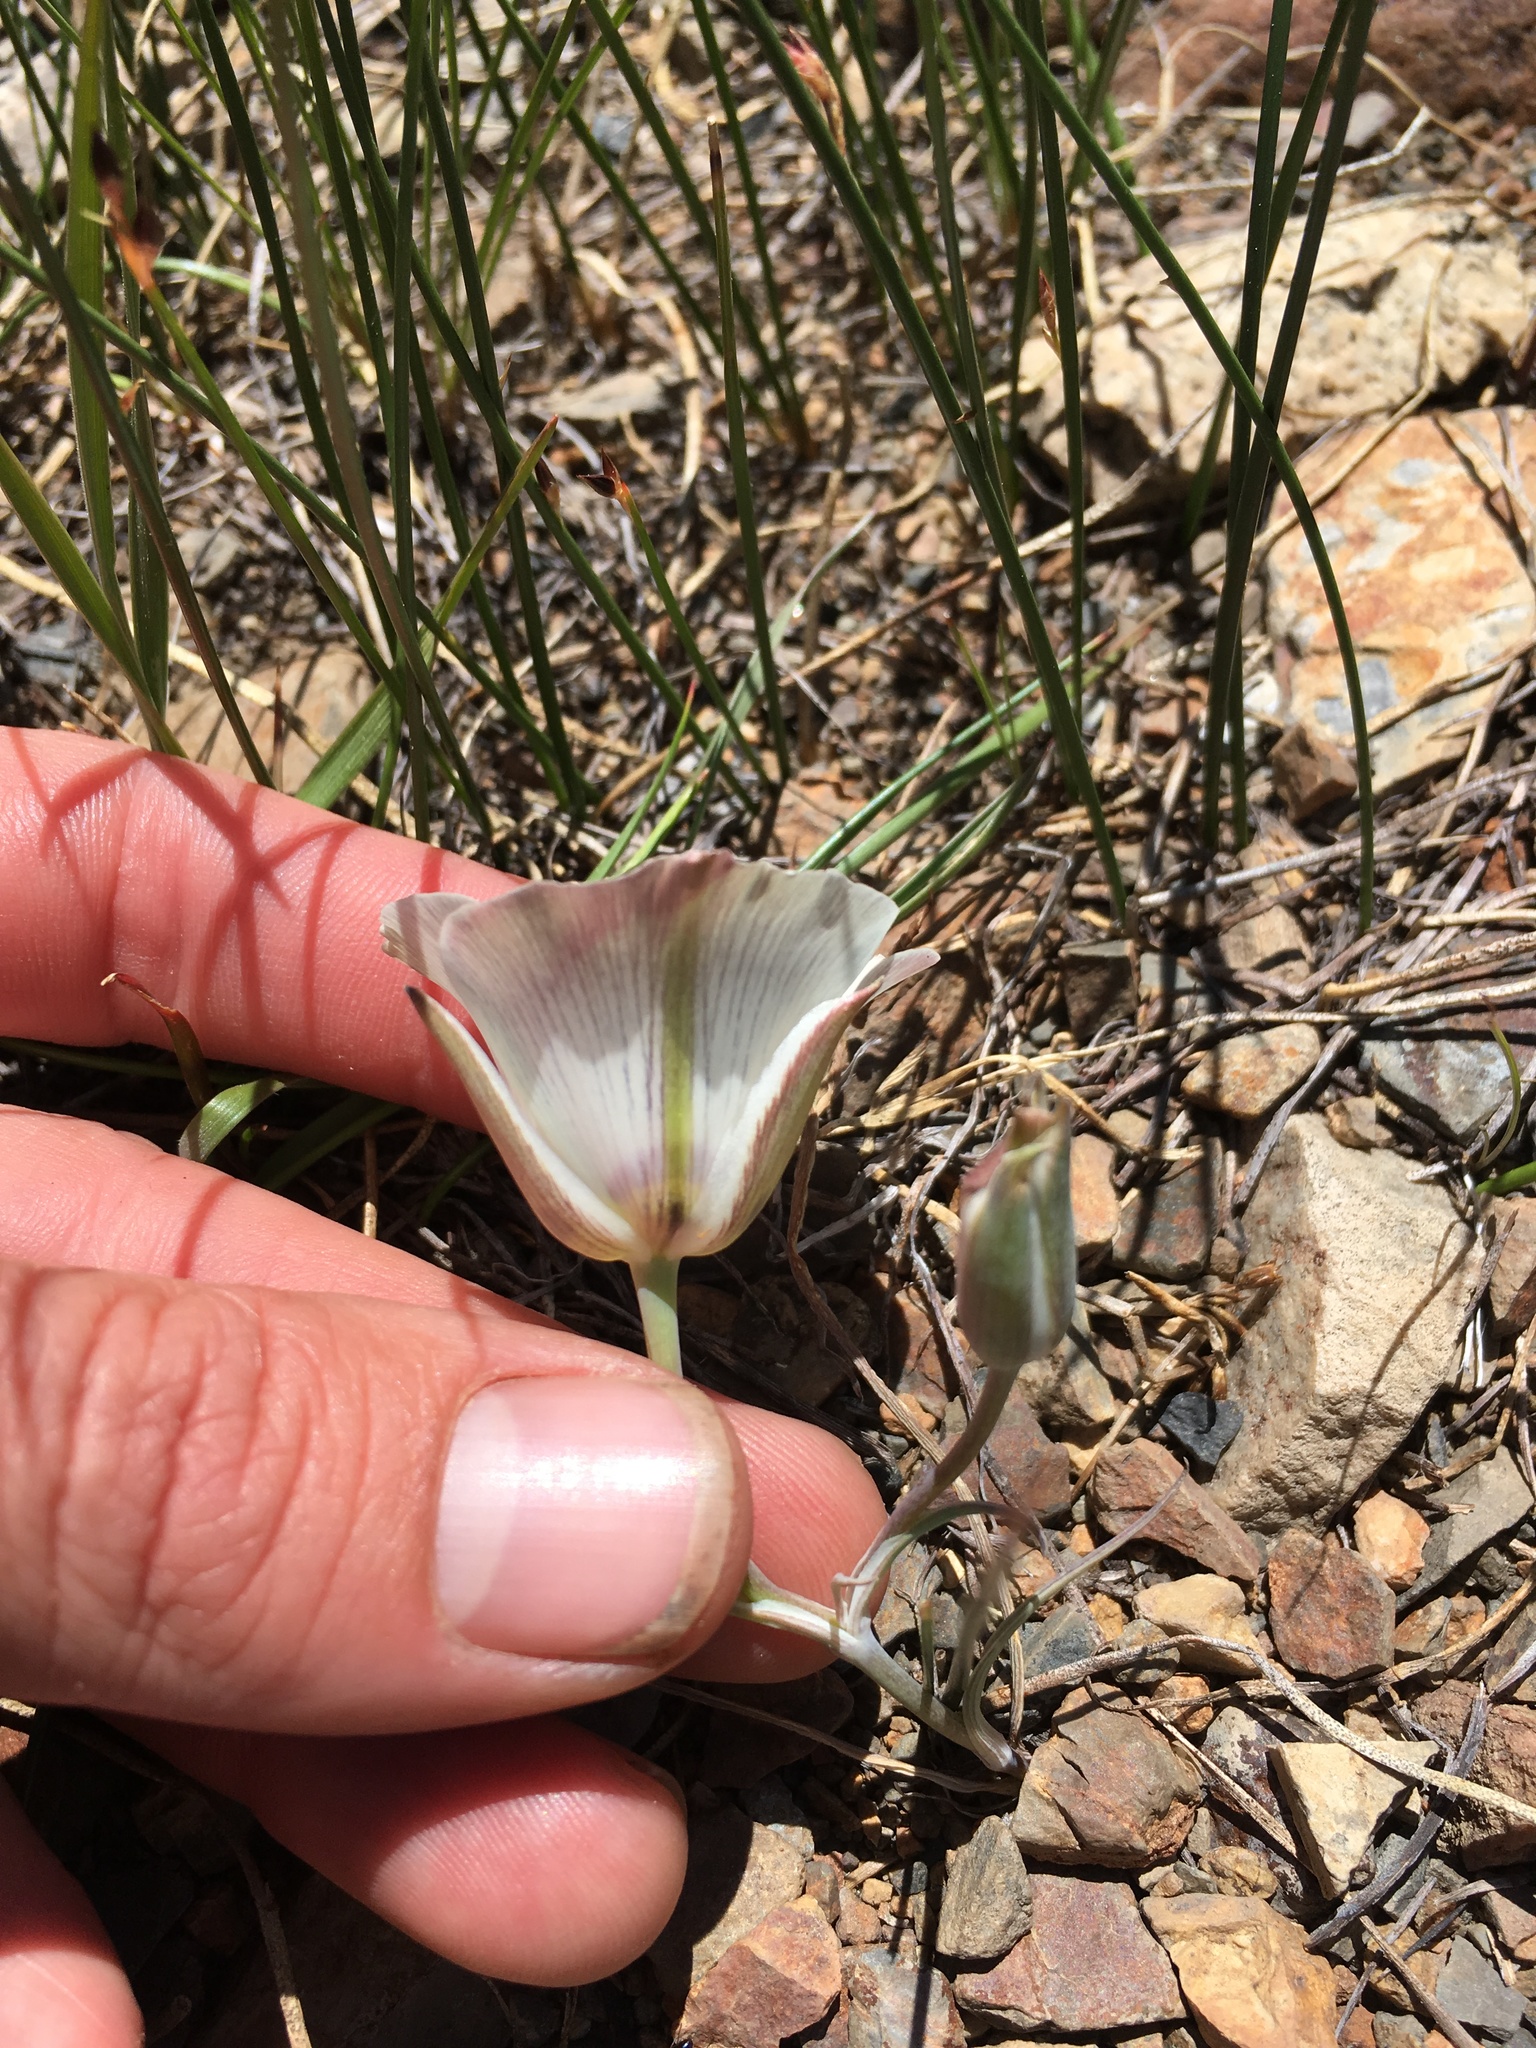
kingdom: Plantae
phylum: Tracheophyta
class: Liliopsida
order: Liliales
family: Liliaceae
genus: Calochortus
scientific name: Calochortus bruneaunis
